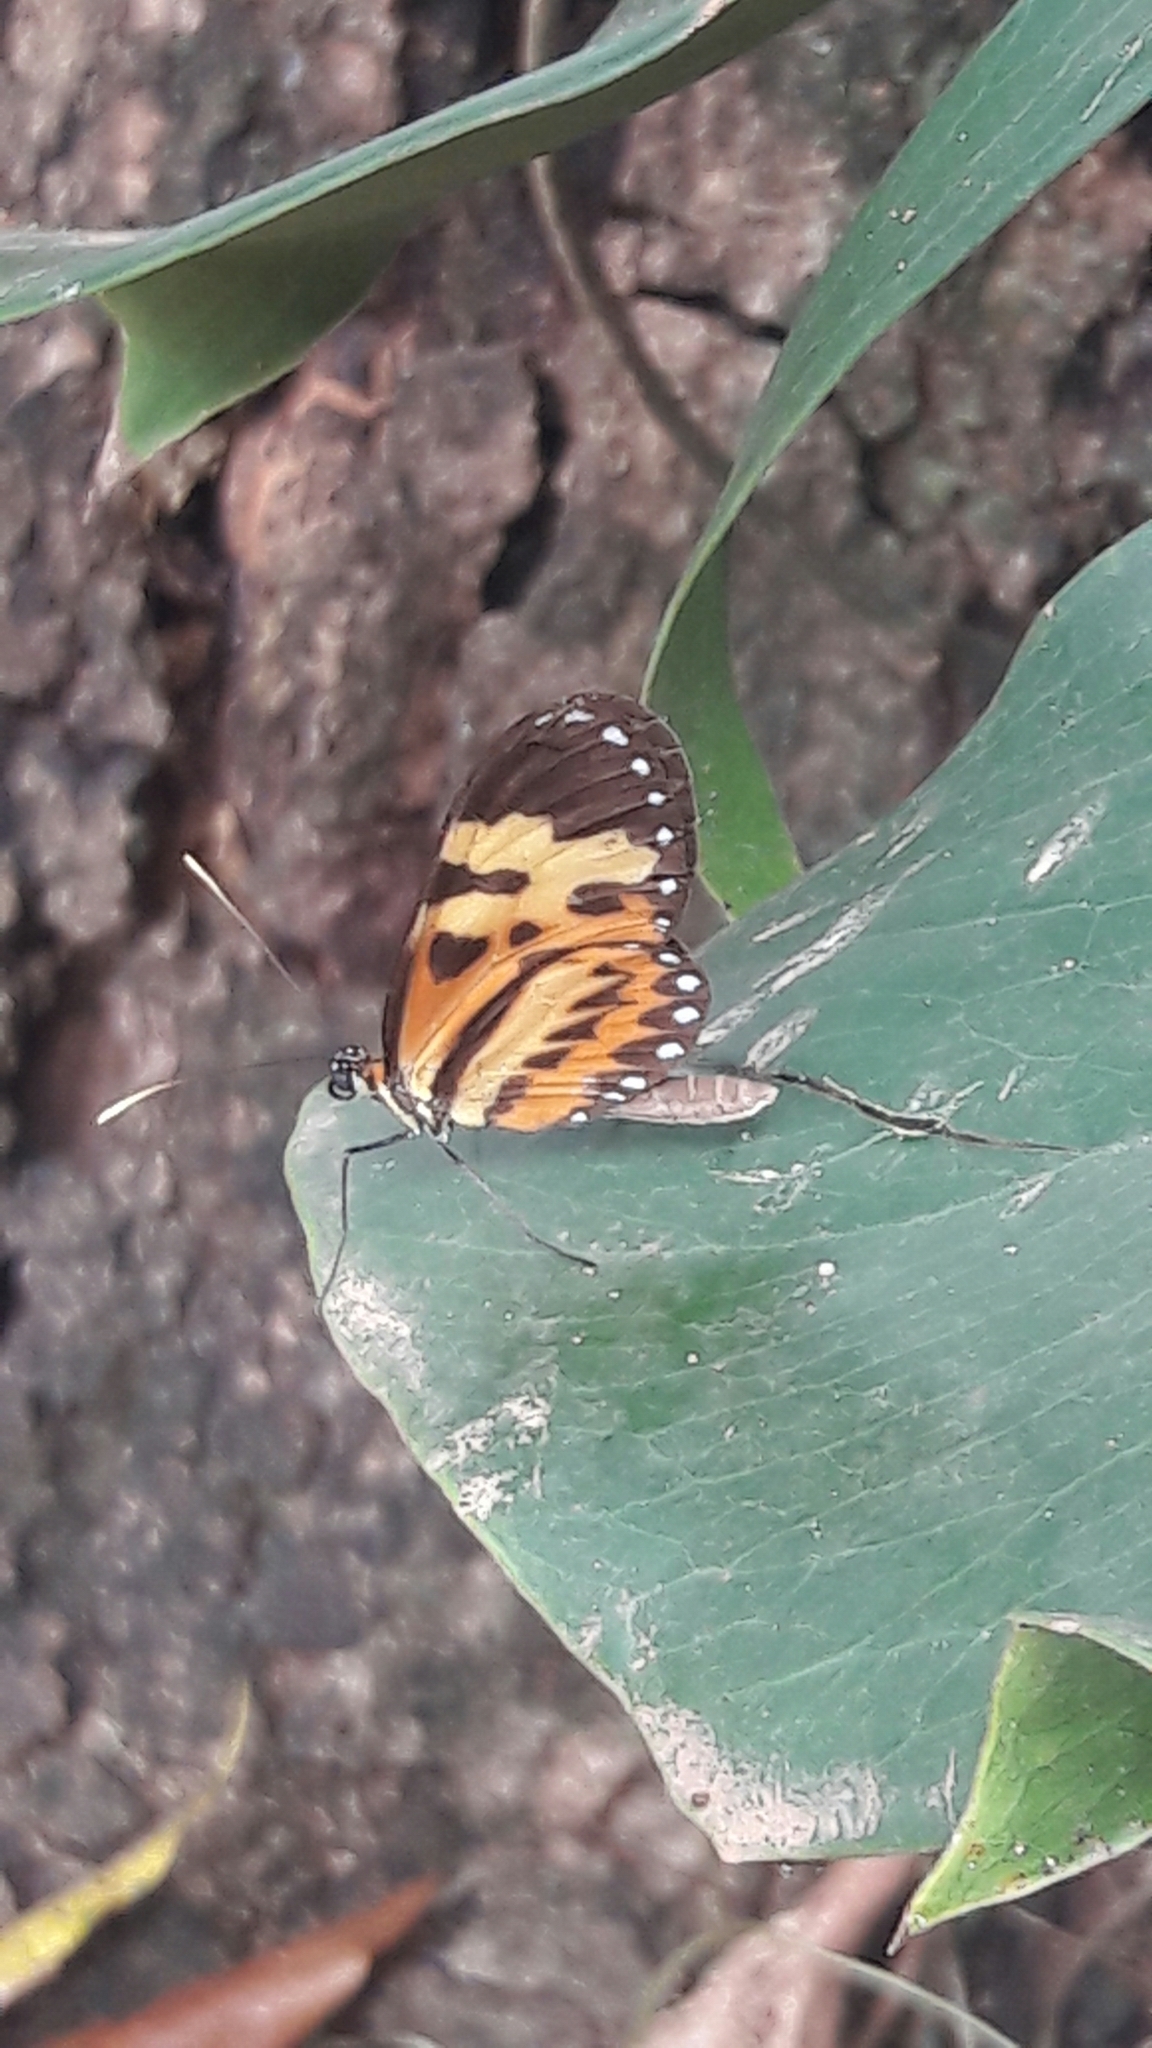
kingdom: Animalia
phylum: Arthropoda
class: Insecta
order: Lepidoptera
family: Nymphalidae
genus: Mechanitis
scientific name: Mechanitis polymnia
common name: Disturbed tigerwing
